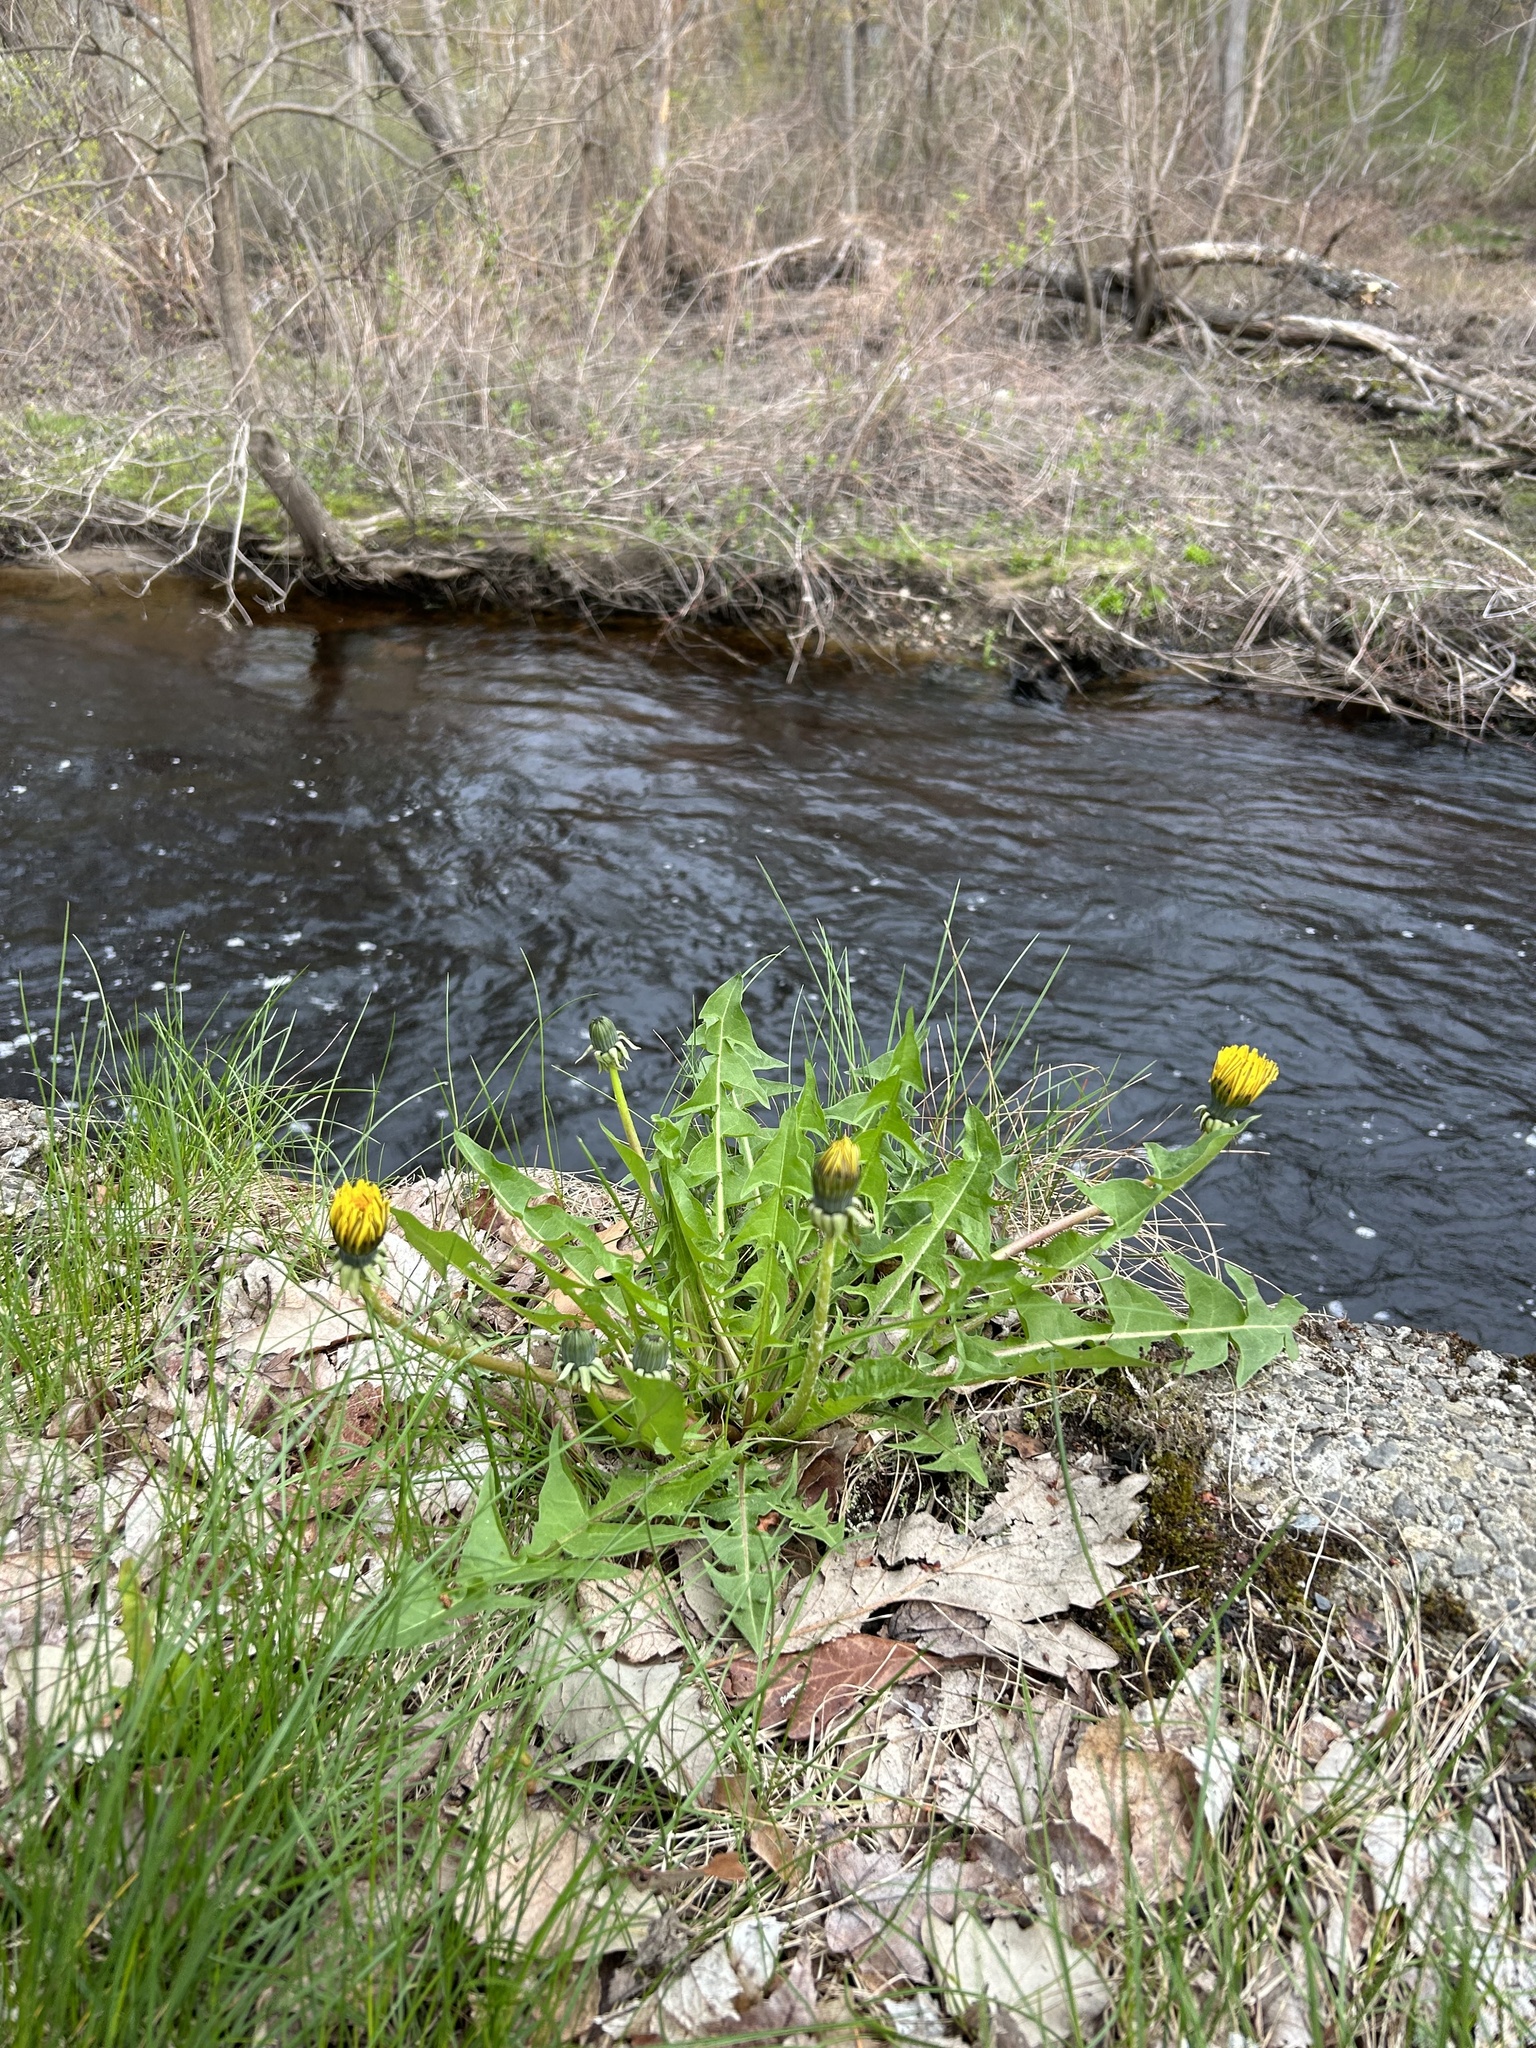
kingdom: Plantae
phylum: Tracheophyta
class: Magnoliopsida
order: Asterales
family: Asteraceae
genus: Taraxacum
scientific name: Taraxacum officinale
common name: Common dandelion
